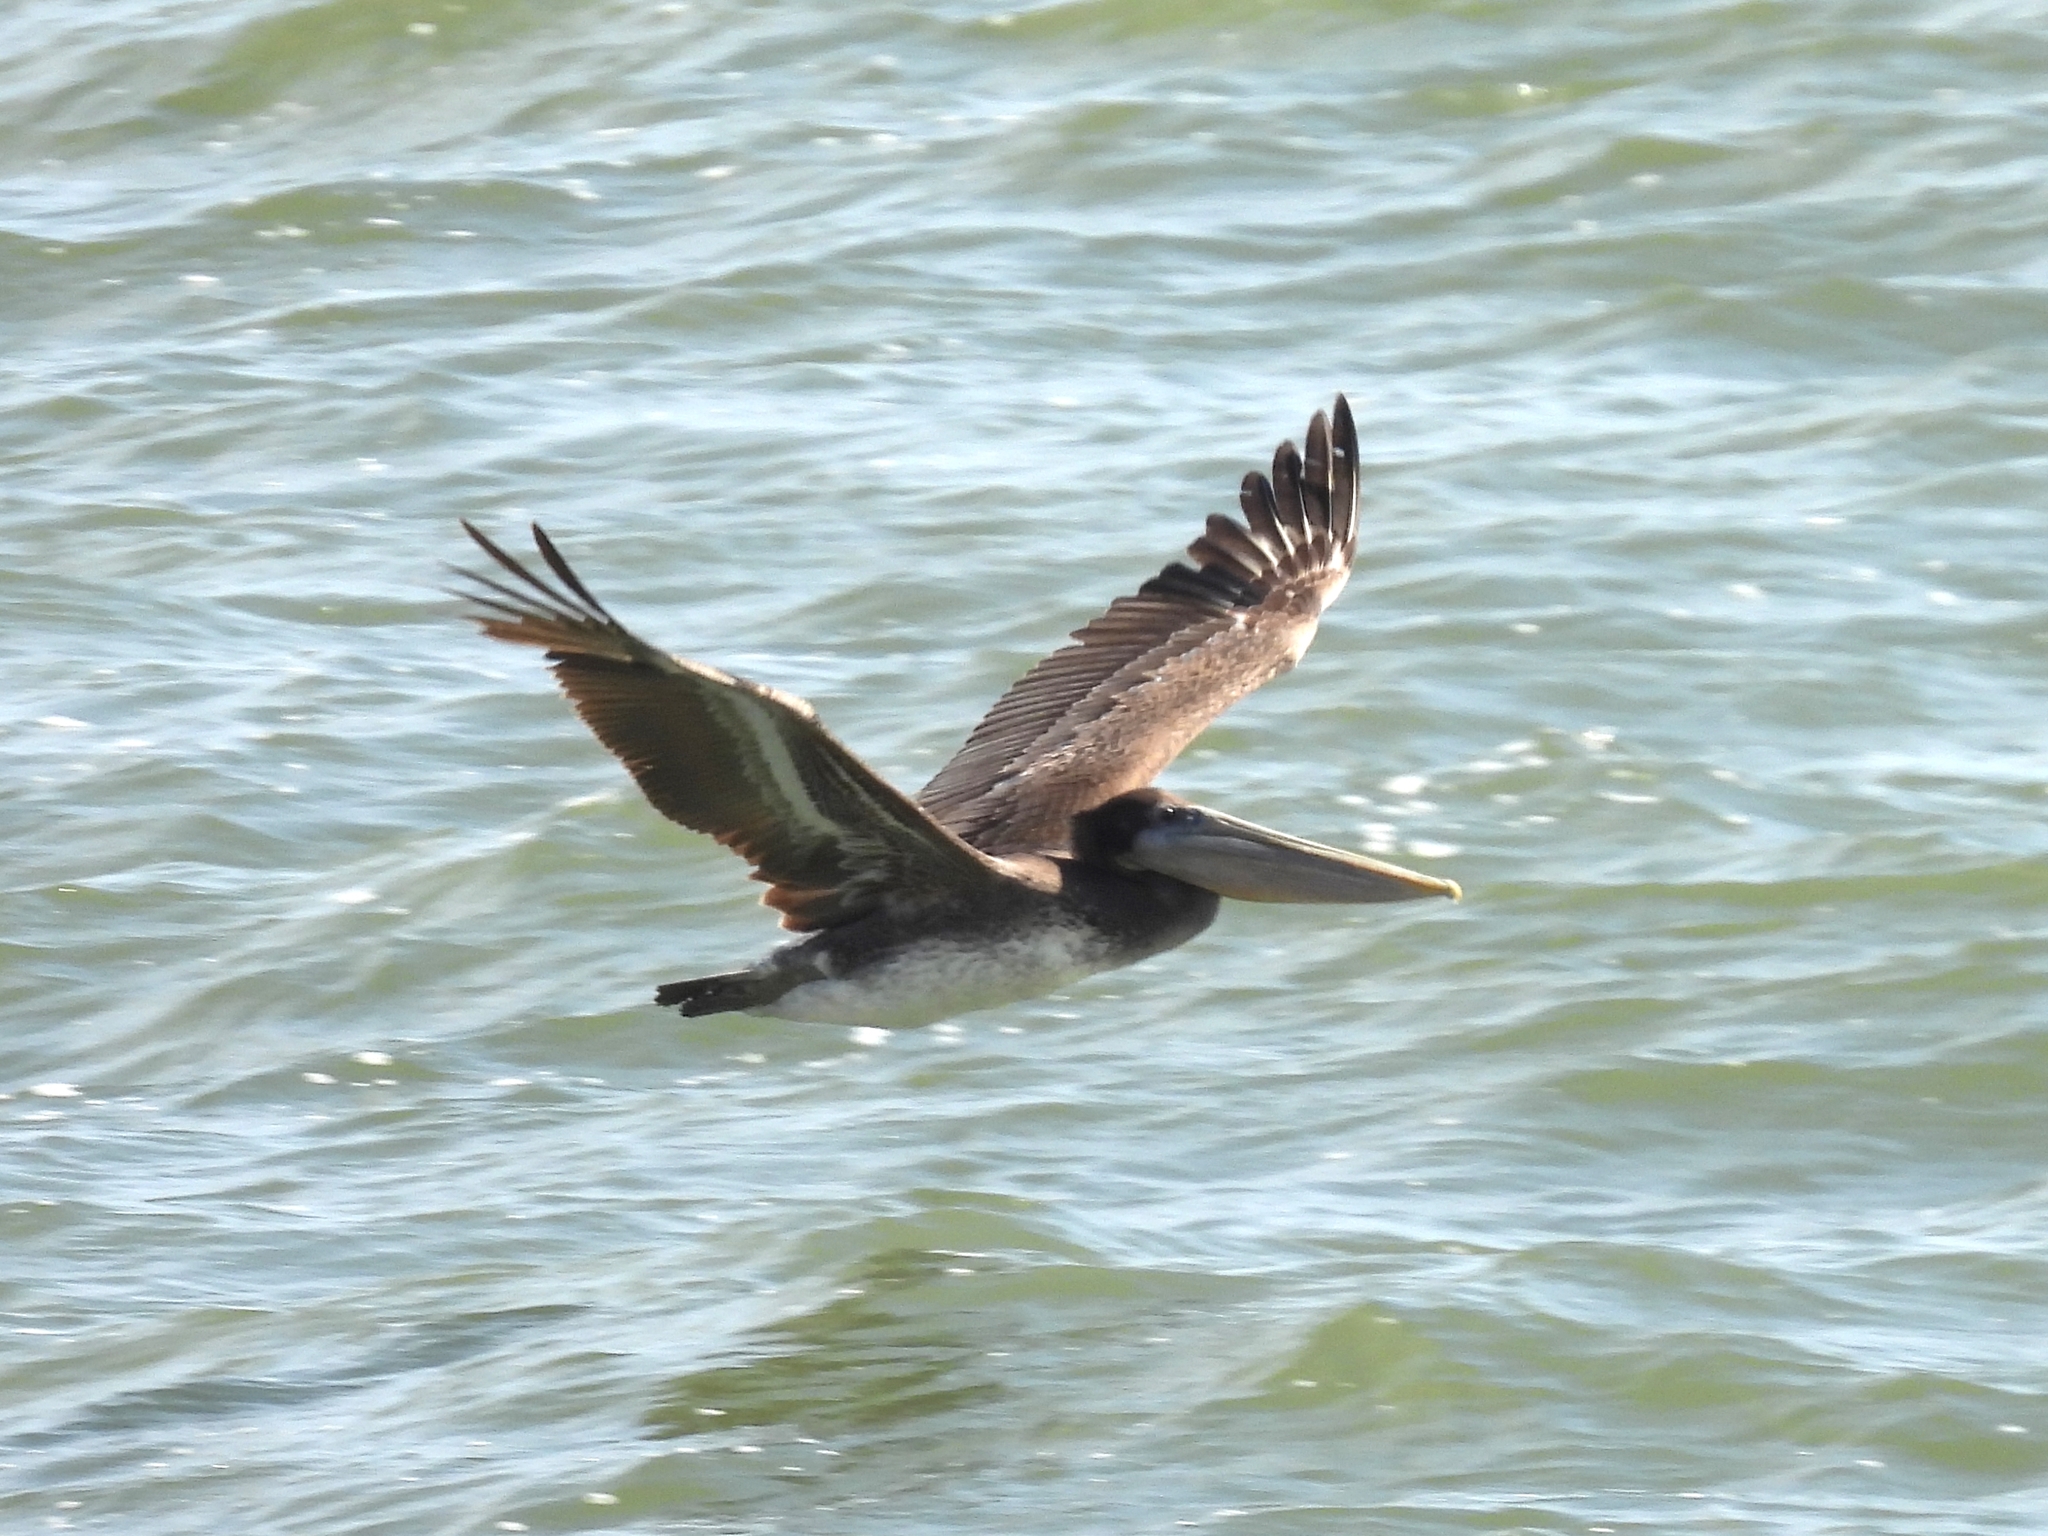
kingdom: Animalia
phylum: Chordata
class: Aves
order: Pelecaniformes
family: Pelecanidae
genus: Pelecanus
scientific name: Pelecanus occidentalis
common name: Brown pelican
